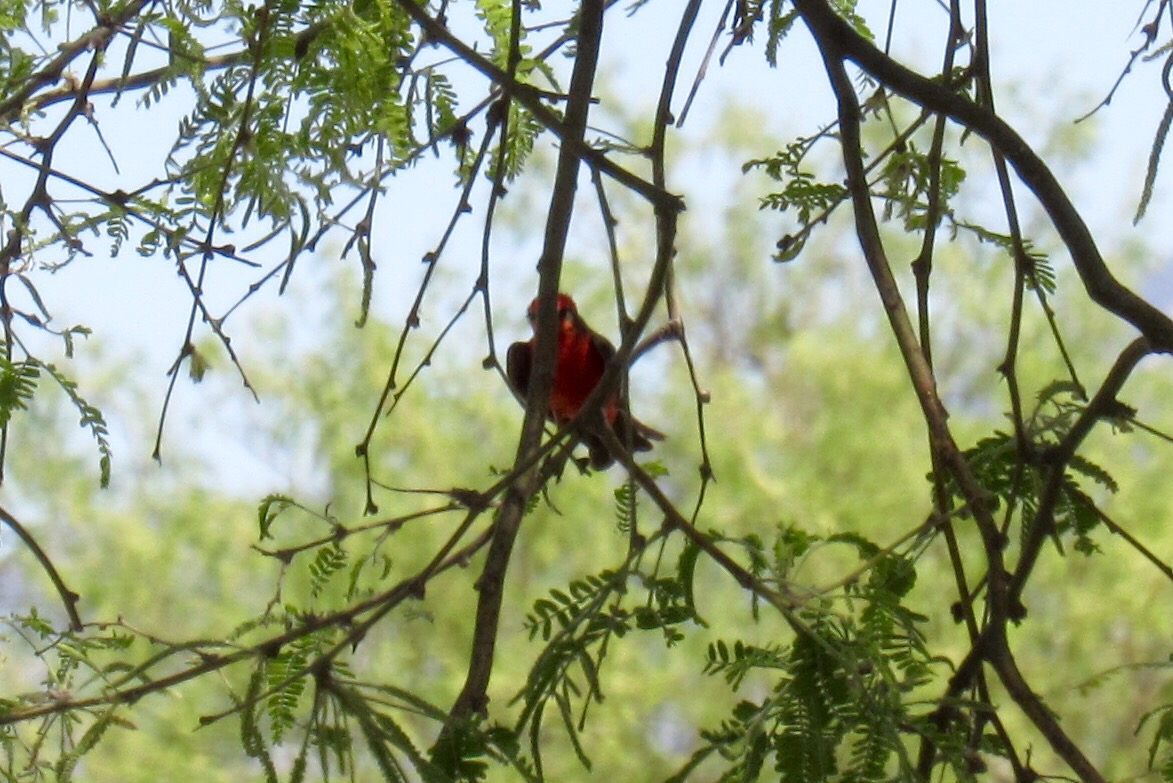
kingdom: Animalia
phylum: Chordata
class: Aves
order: Passeriformes
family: Tyrannidae
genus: Pyrocephalus
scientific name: Pyrocephalus rubinus
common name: Vermilion flycatcher
